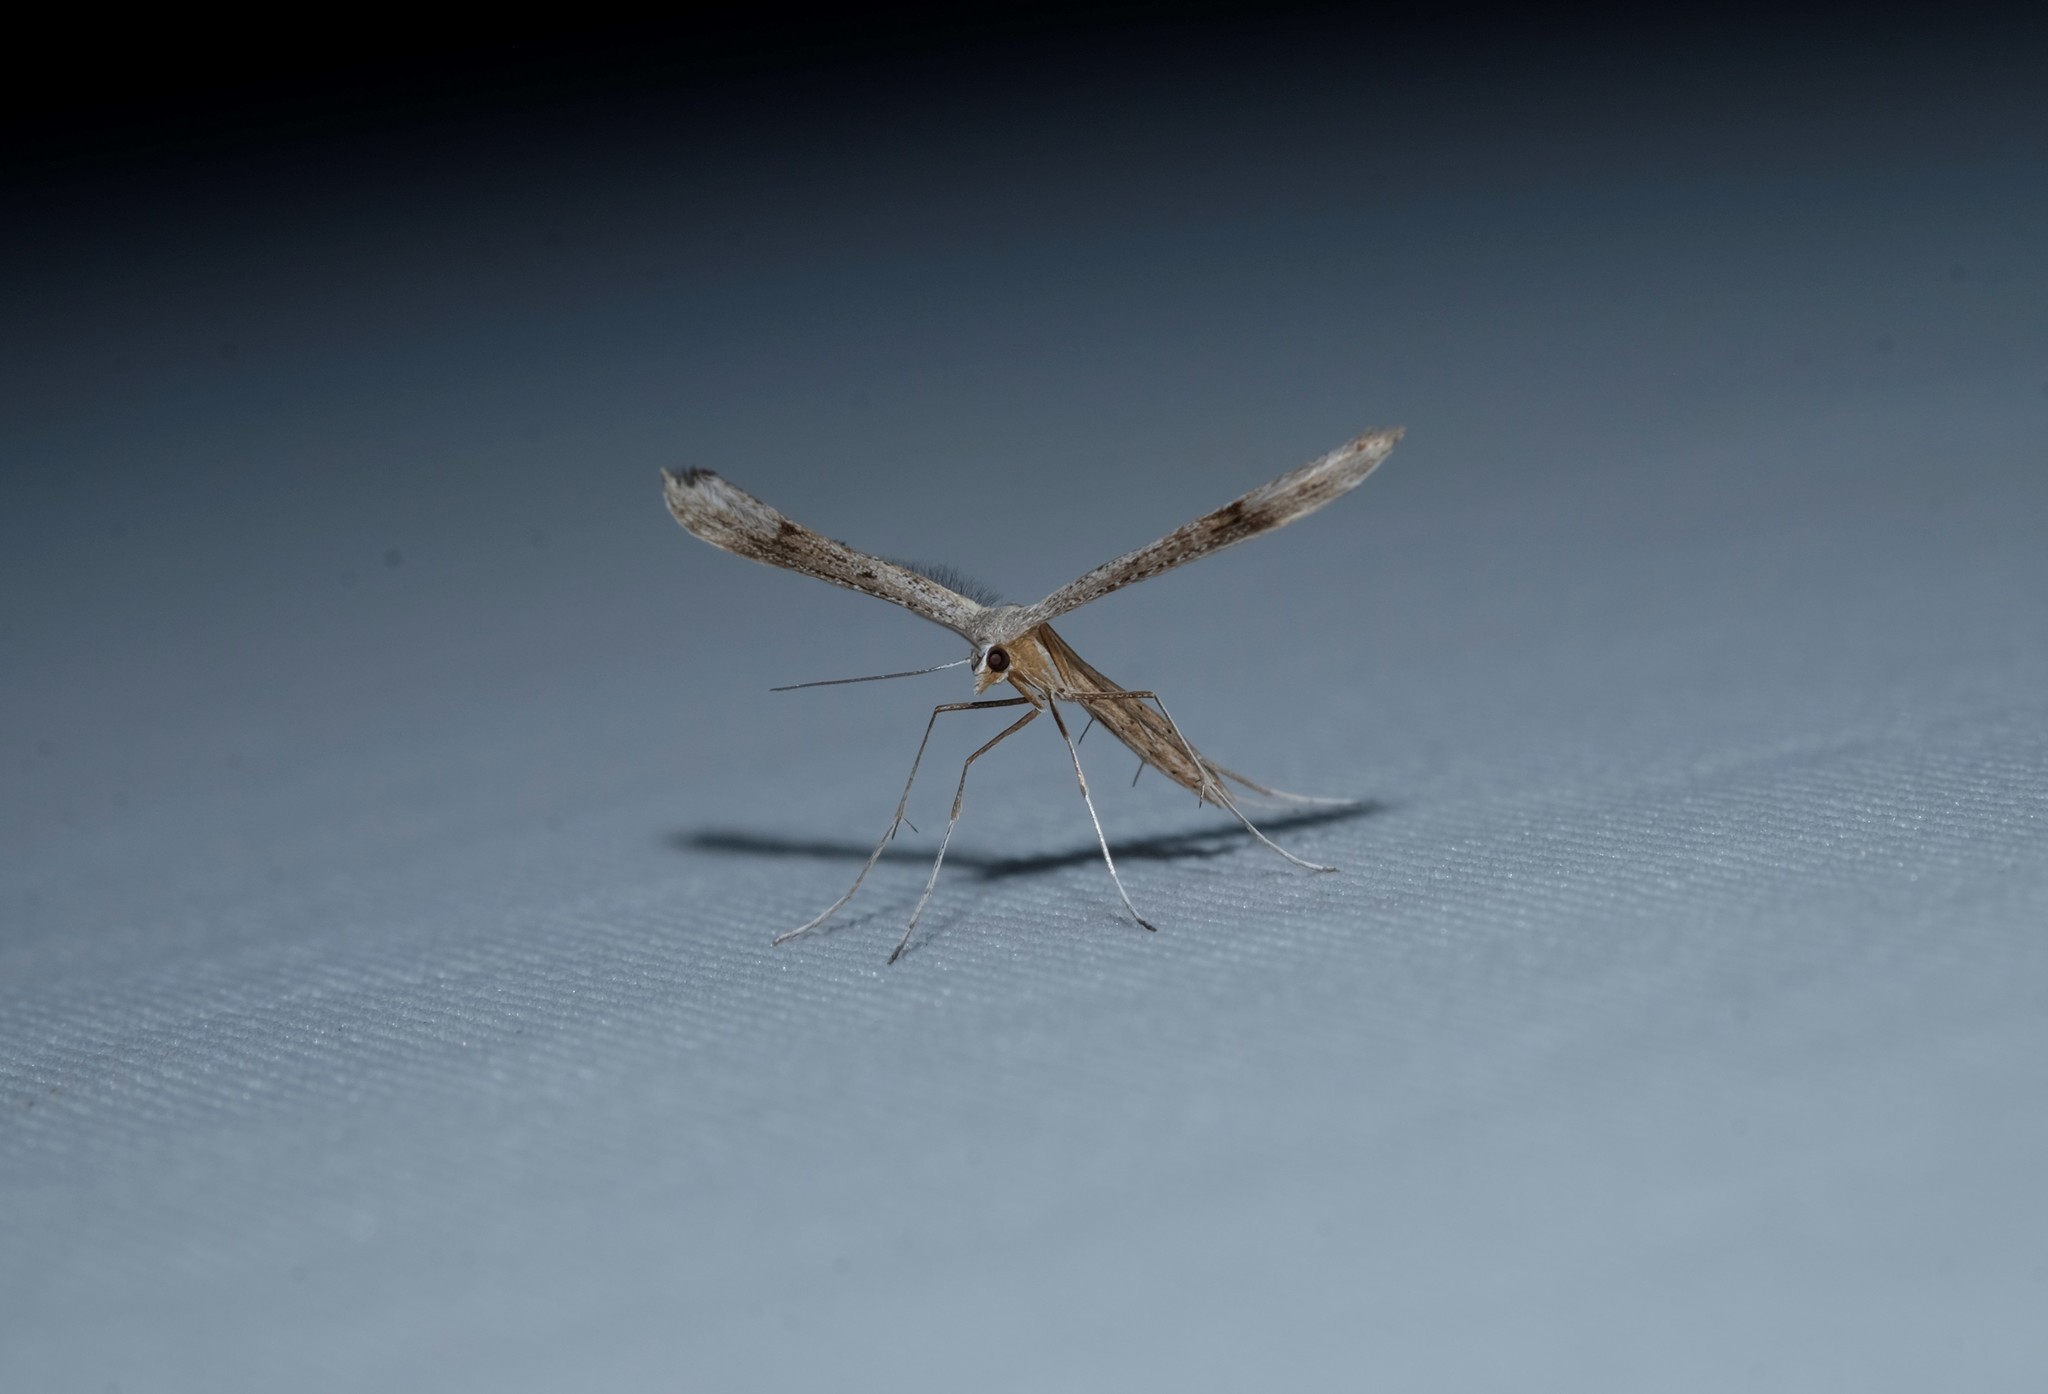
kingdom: Animalia
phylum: Arthropoda
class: Insecta
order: Lepidoptera
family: Pterophoridae
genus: Stangeia
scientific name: Stangeia xerodes
